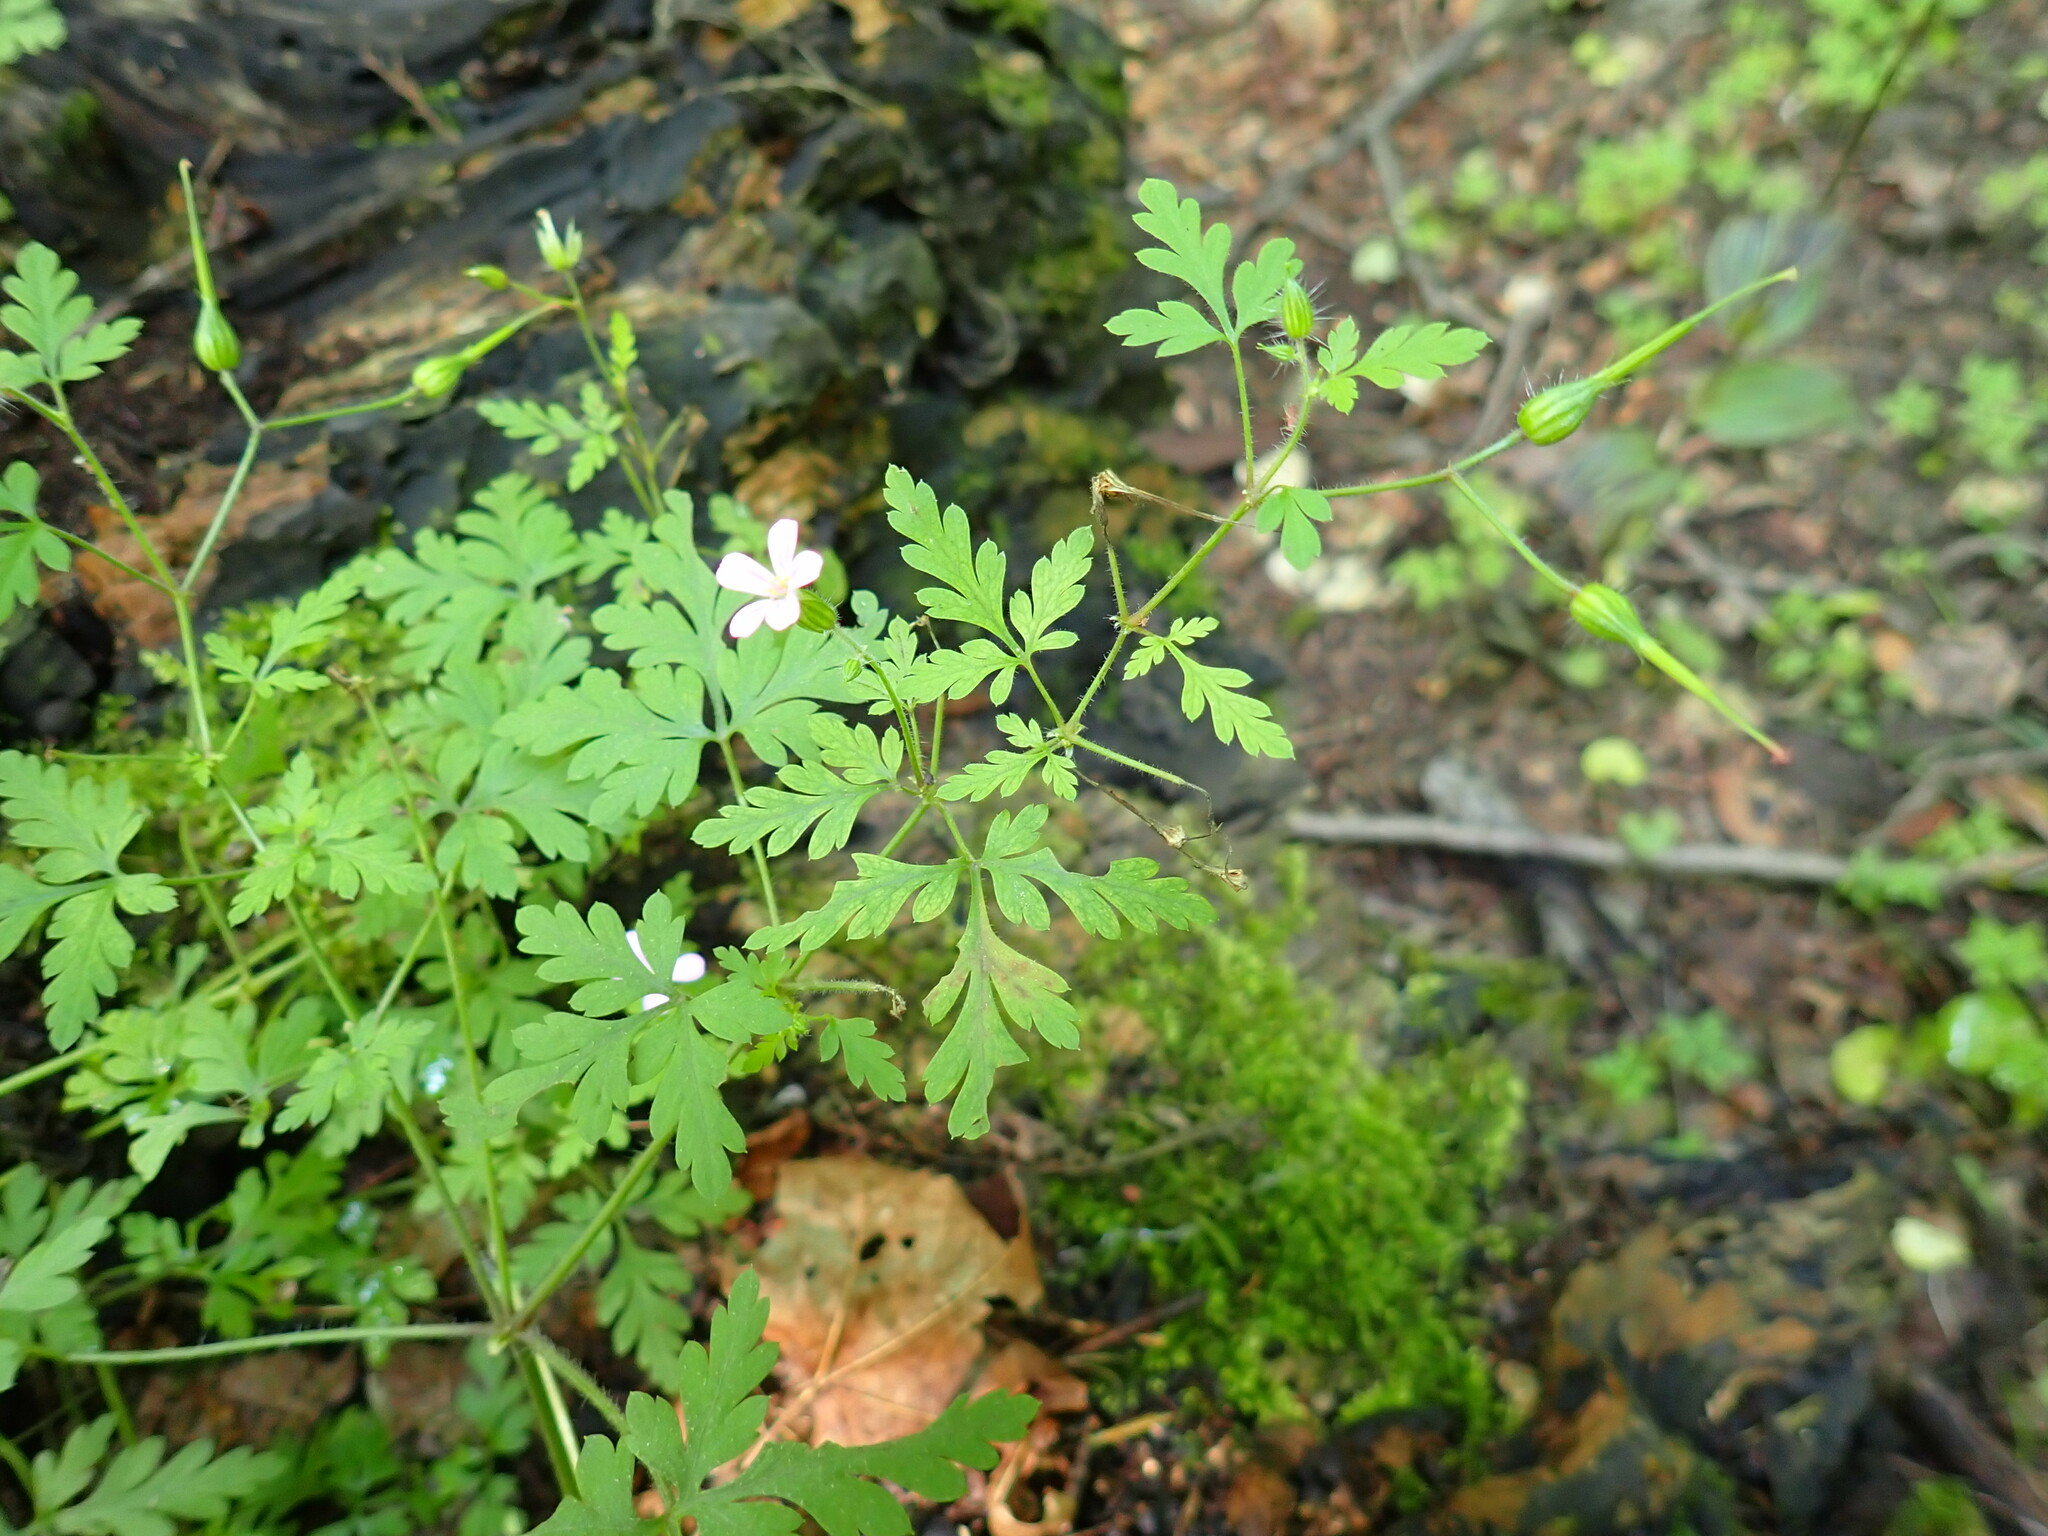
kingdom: Plantae
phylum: Tracheophyta
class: Magnoliopsida
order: Geraniales
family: Geraniaceae
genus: Geranium
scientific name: Geranium robertianum
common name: Herb-robert
